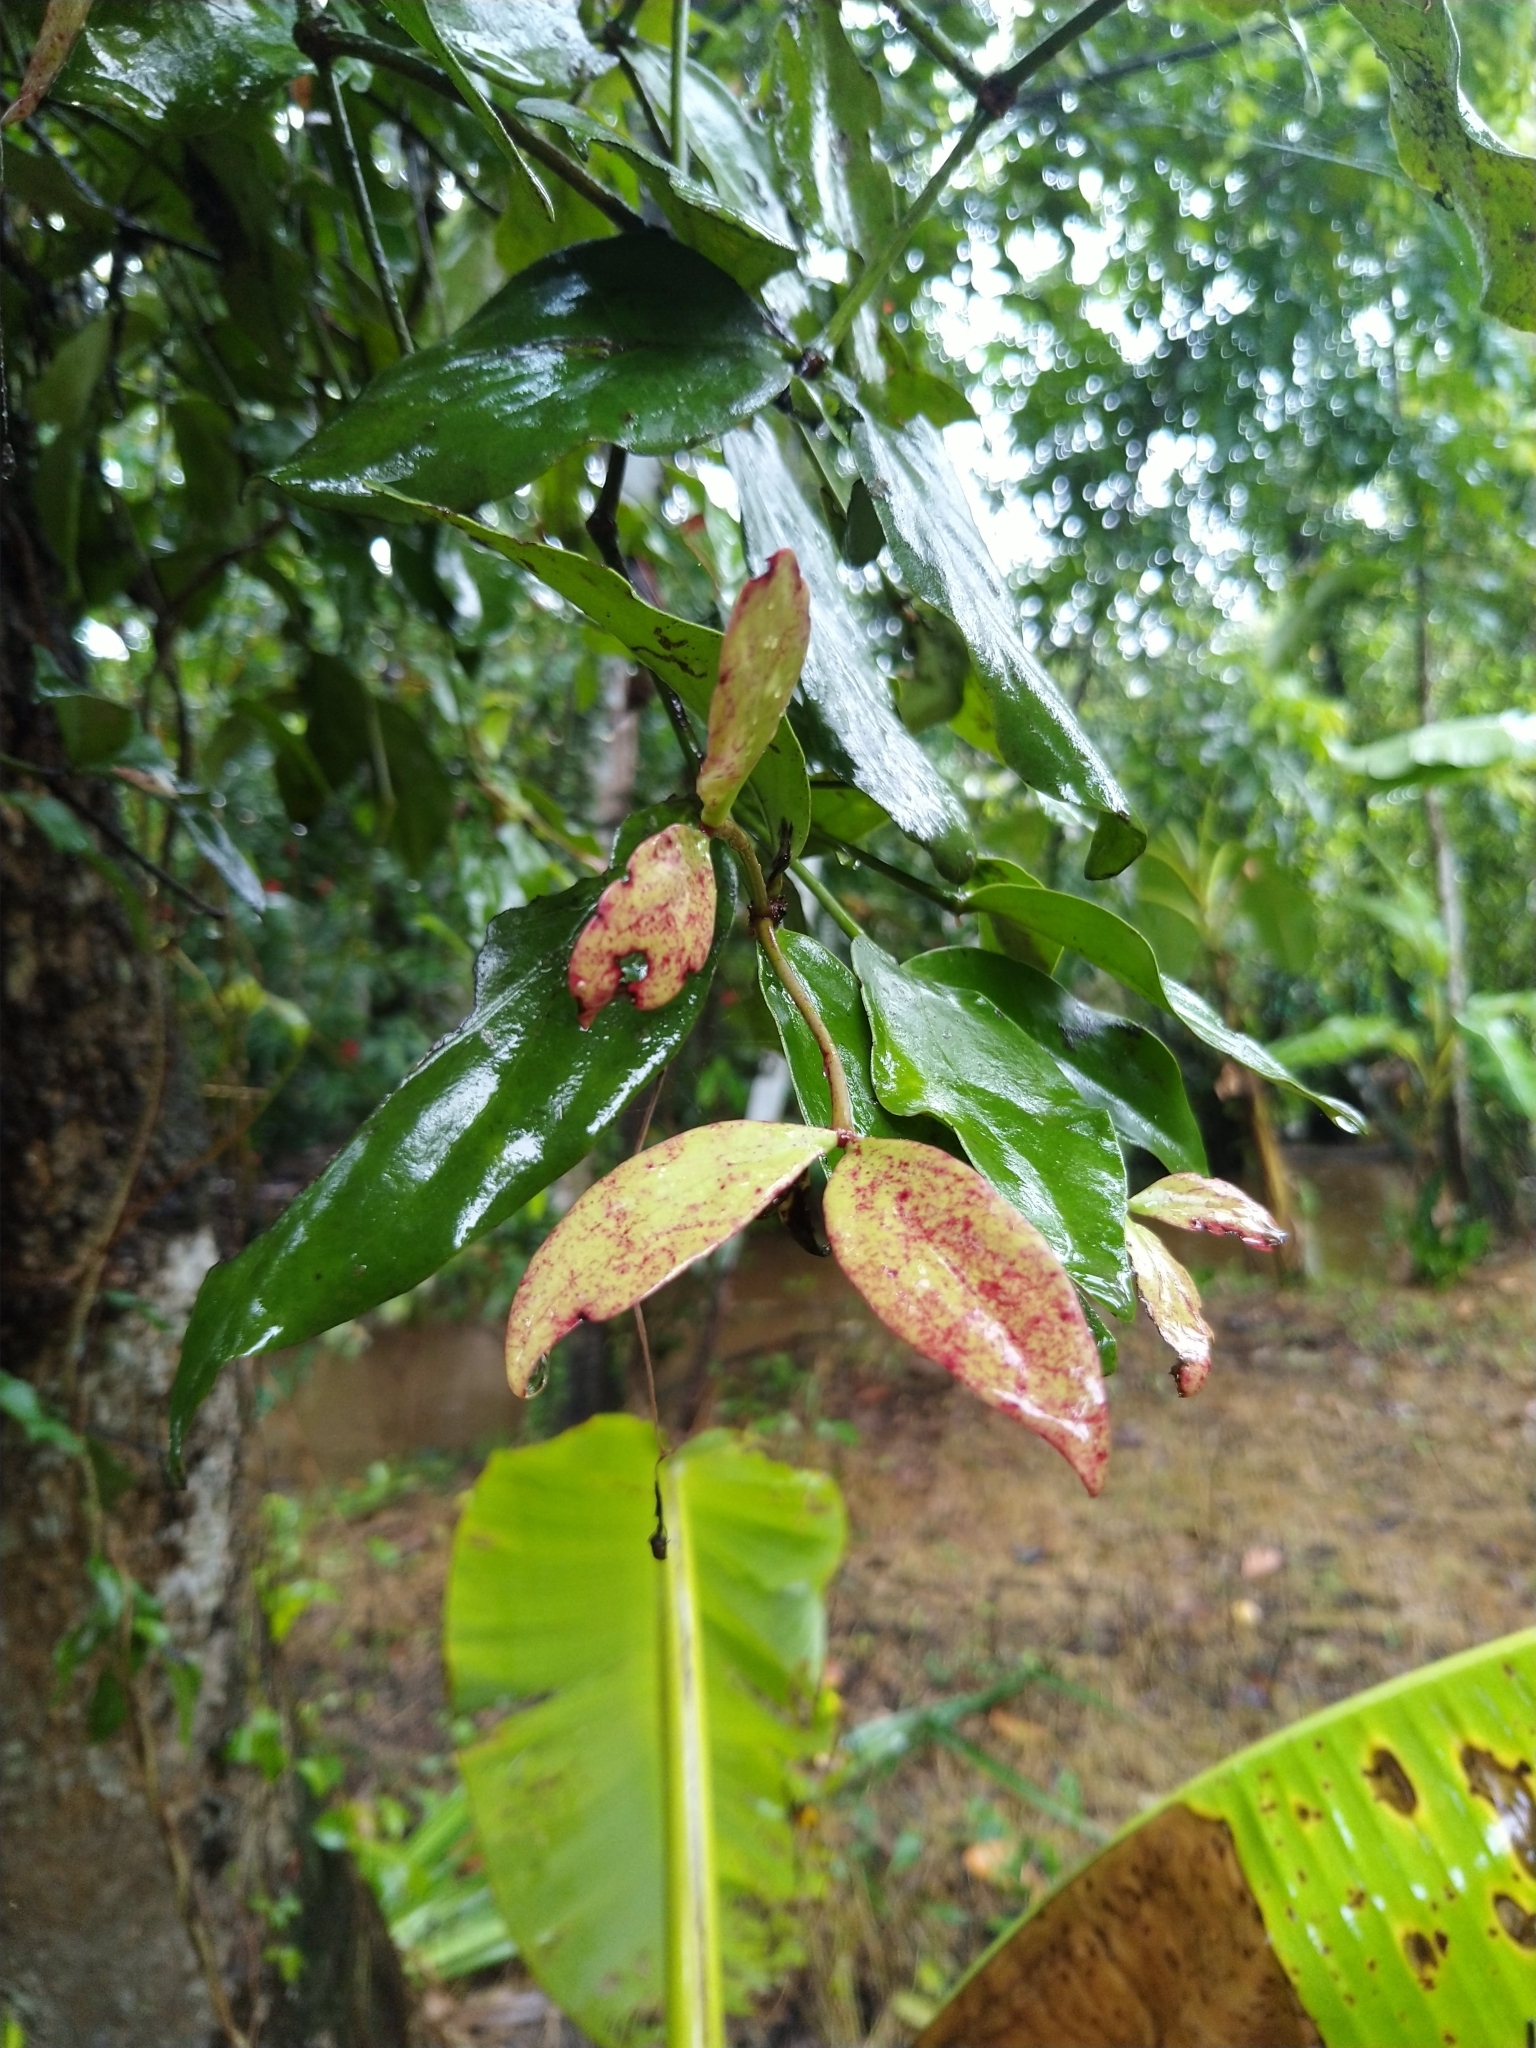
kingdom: Plantae
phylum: Tracheophyta
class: Liliopsida
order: Alismatales
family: Araceae
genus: Pothos
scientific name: Pothos chinensis
